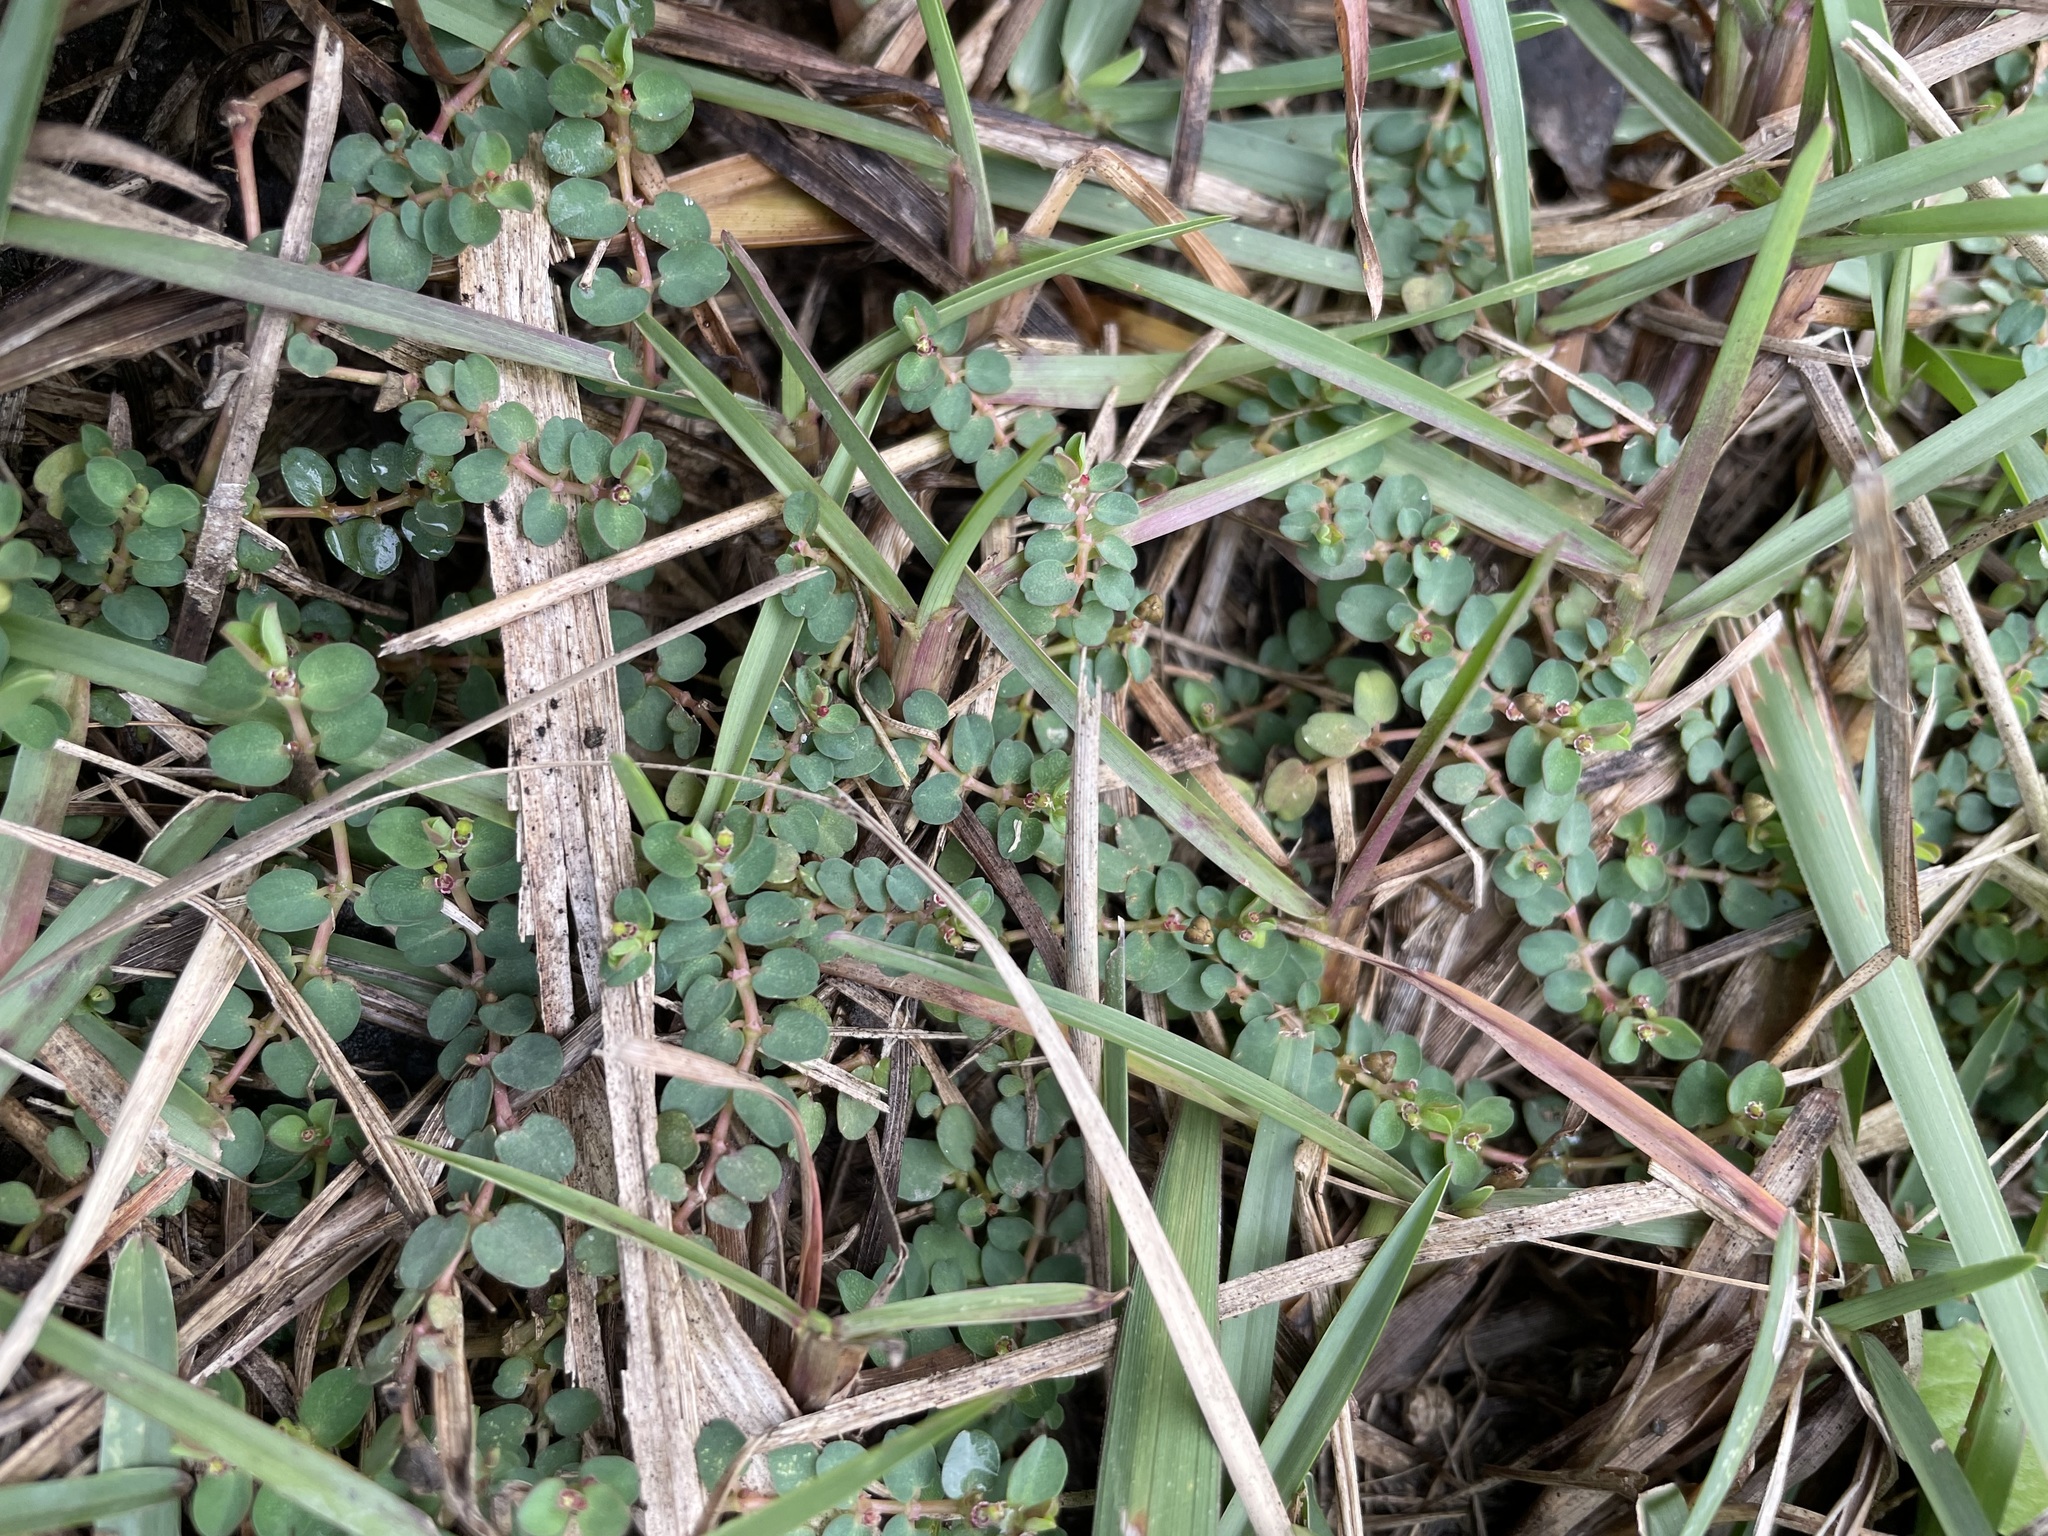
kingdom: Plantae
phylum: Tracheophyta
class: Magnoliopsida
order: Malpighiales
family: Euphorbiaceae
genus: Euphorbia
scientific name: Euphorbia serpens
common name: Matted sandmat
